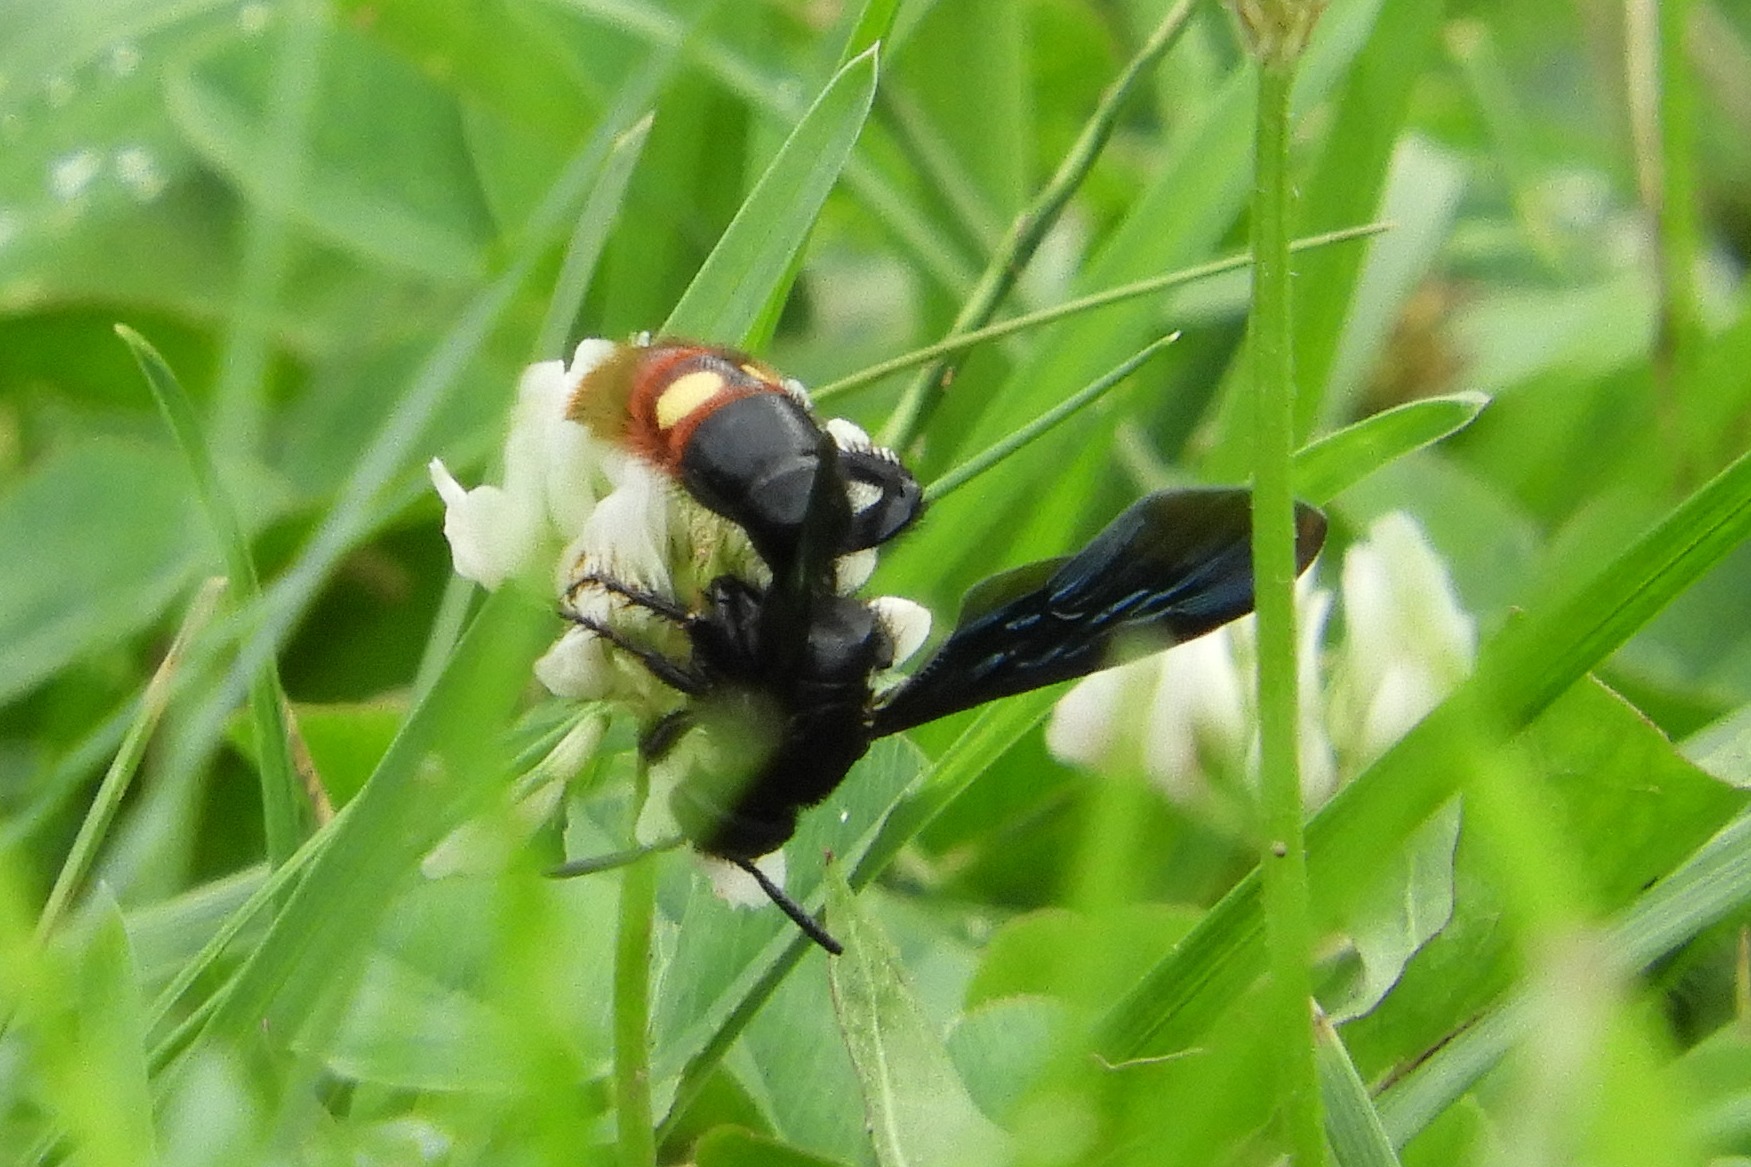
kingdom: Animalia
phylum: Arthropoda
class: Insecta
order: Hymenoptera
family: Scoliidae
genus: Scolia
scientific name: Scolia dubia
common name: Blue-winged scoliid wasp
